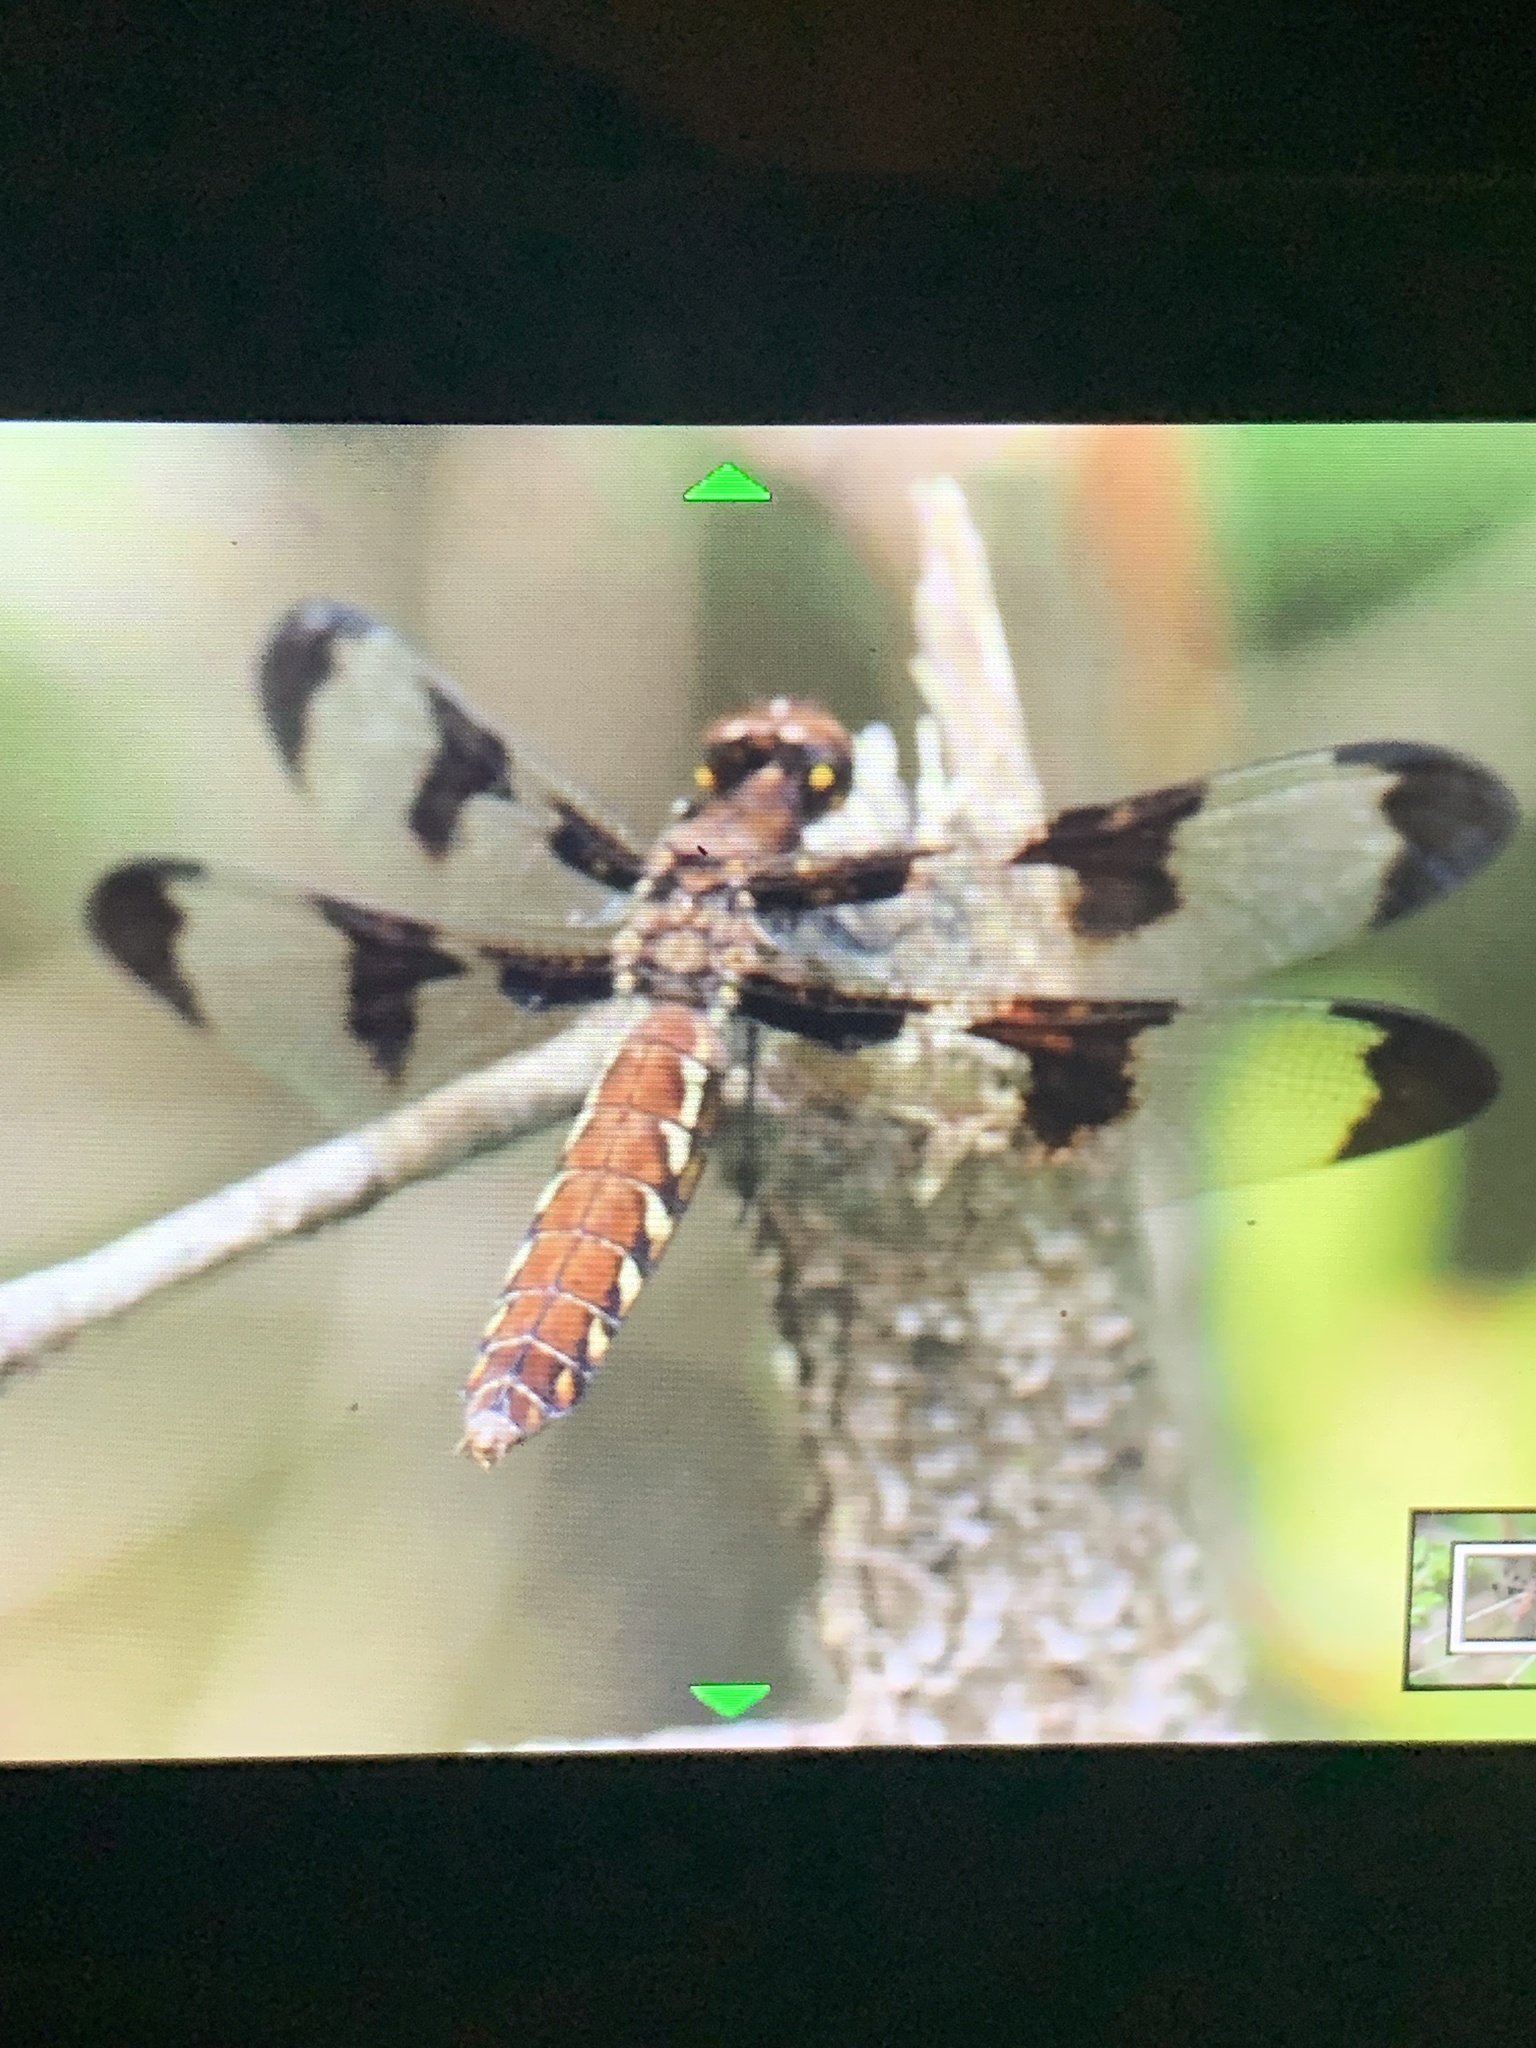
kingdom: Animalia
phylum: Arthropoda
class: Insecta
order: Odonata
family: Libellulidae
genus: Plathemis
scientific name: Plathemis lydia
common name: Common whitetail
